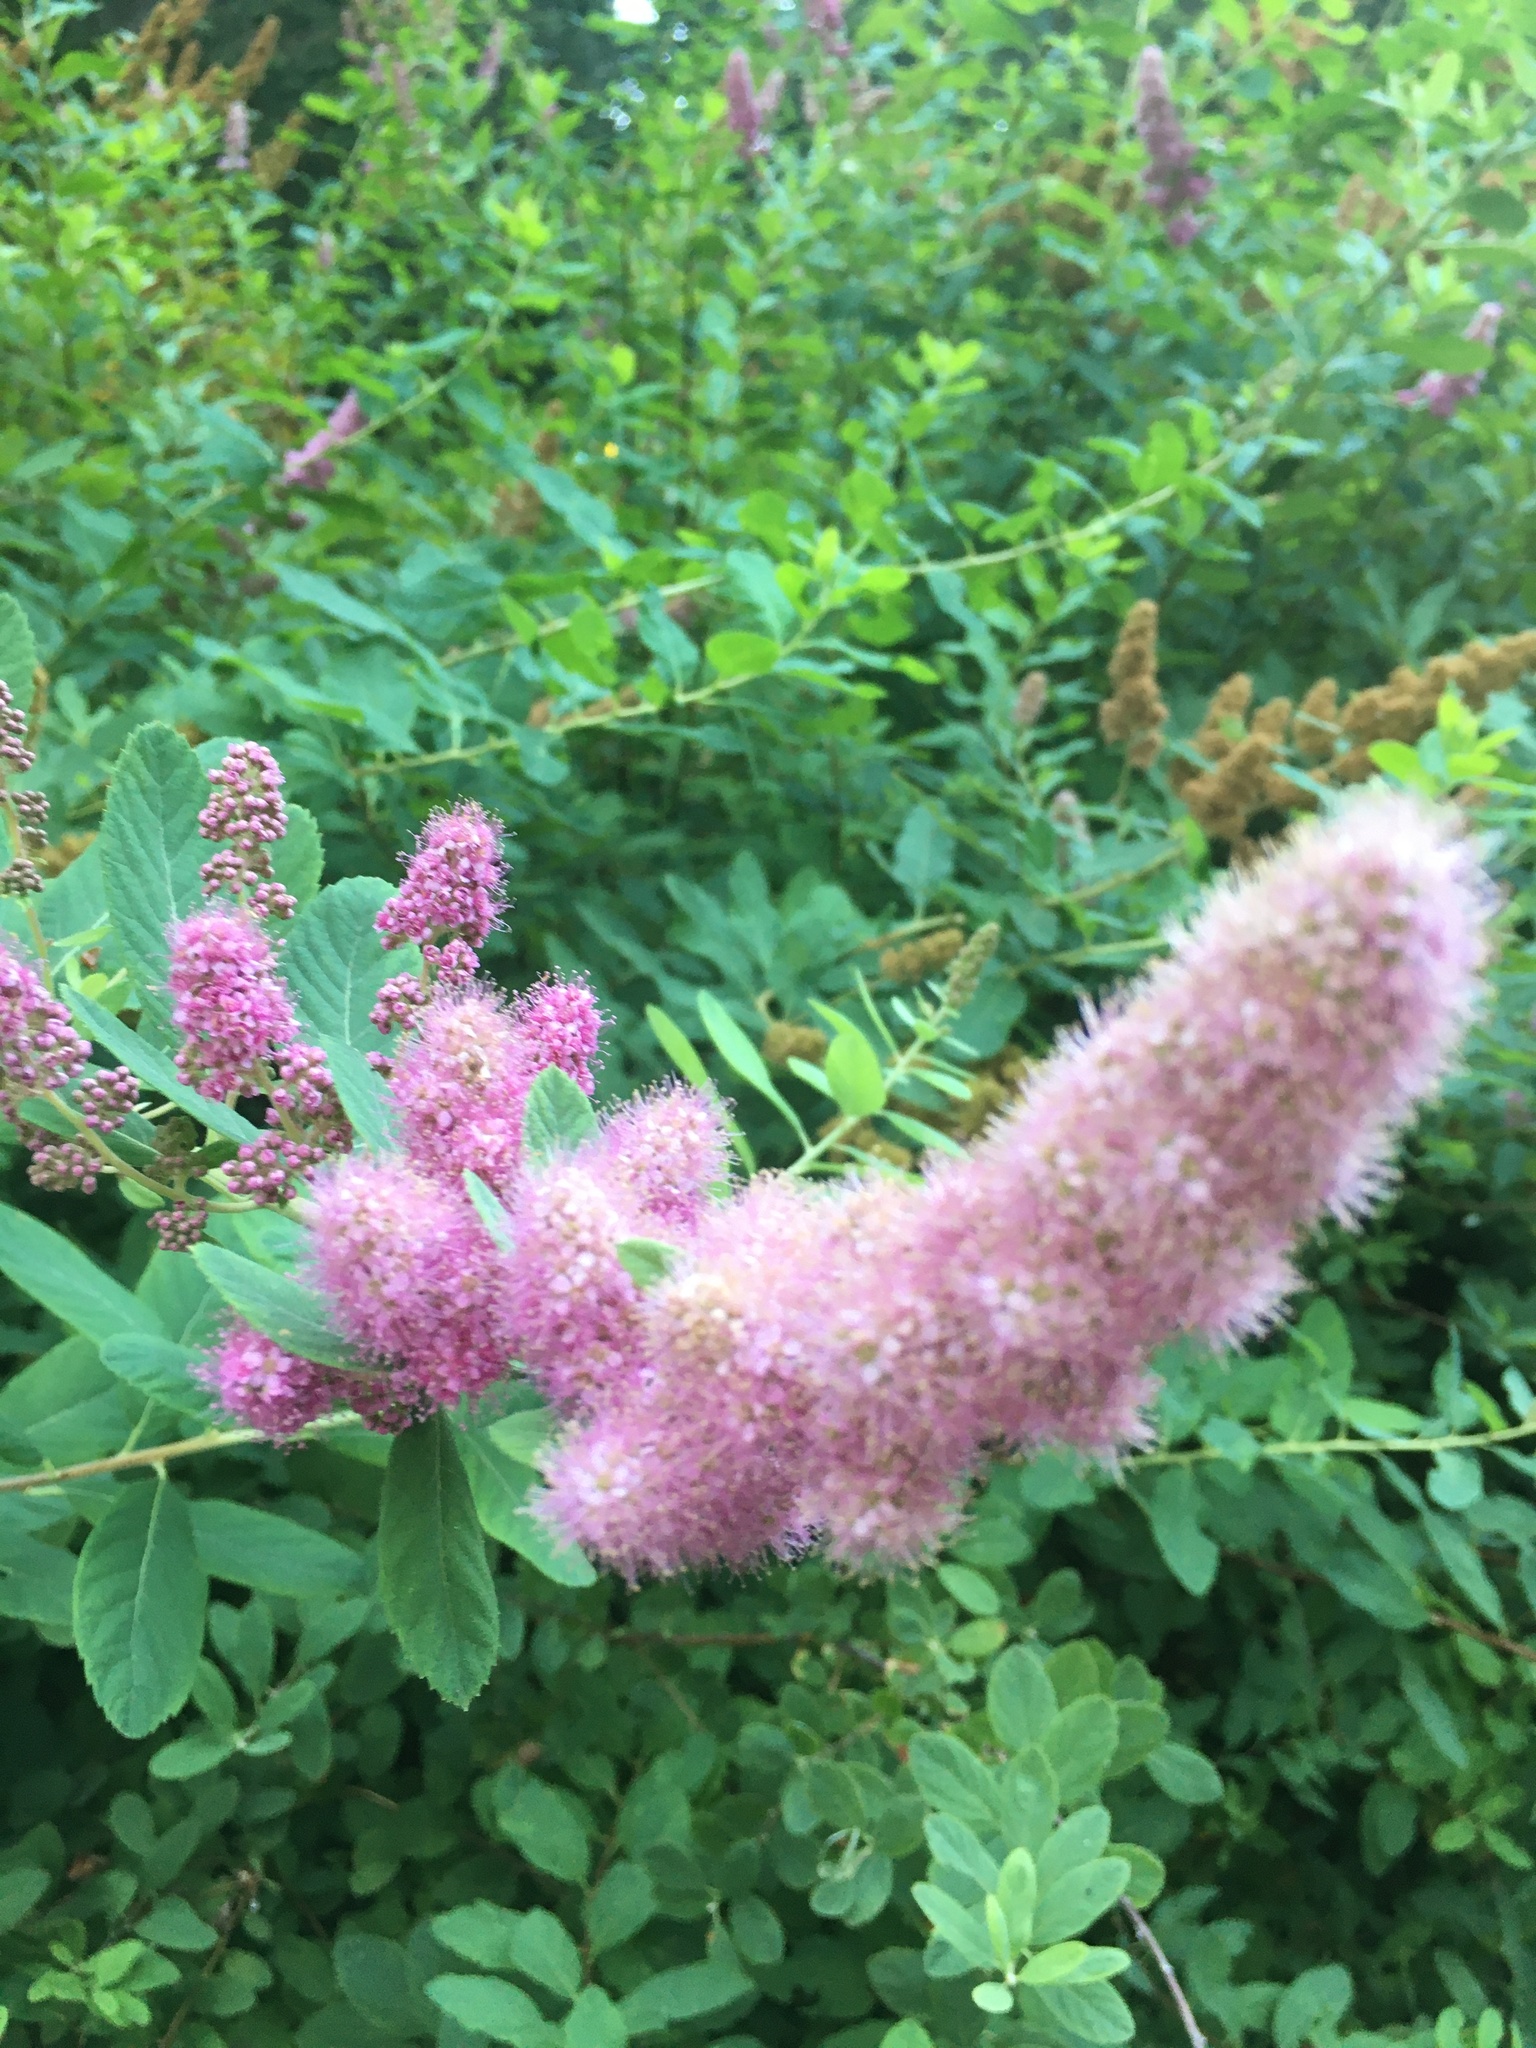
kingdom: Plantae
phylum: Tracheophyta
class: Magnoliopsida
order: Rosales
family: Rosaceae
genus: Spiraea
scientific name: Spiraea douglasii
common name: Steeplebush
